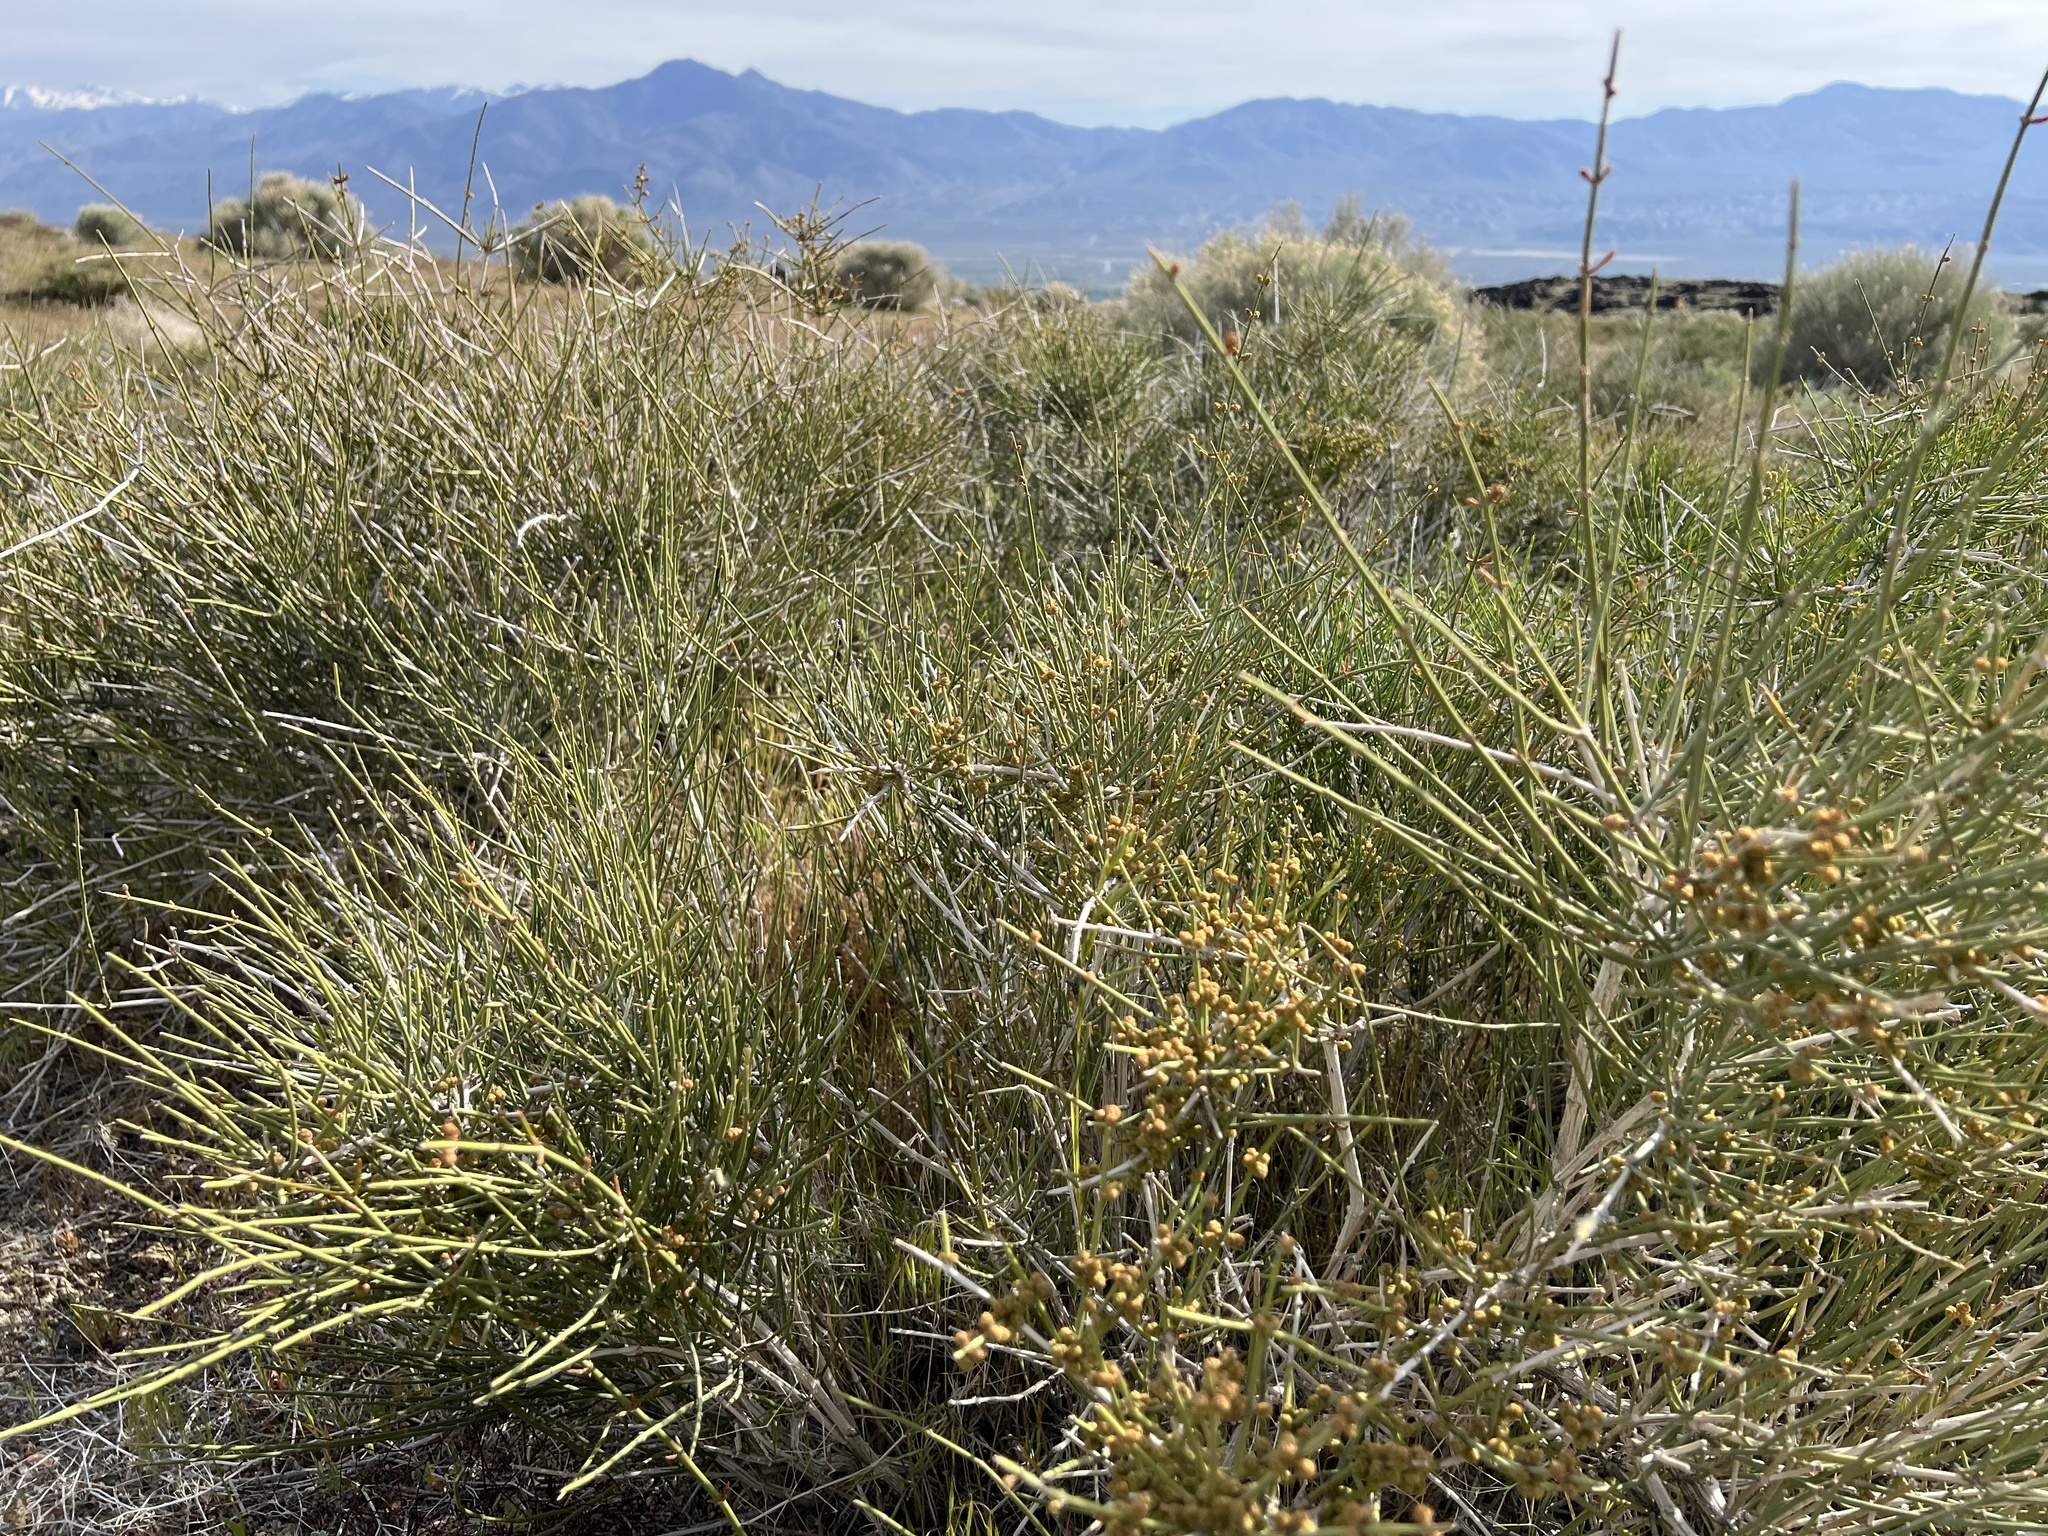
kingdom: Plantae
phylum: Tracheophyta
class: Gnetopsida
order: Ephedrales
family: Ephedraceae
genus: Ephedra
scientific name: Ephedra nevadensis
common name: Gray ephedra
